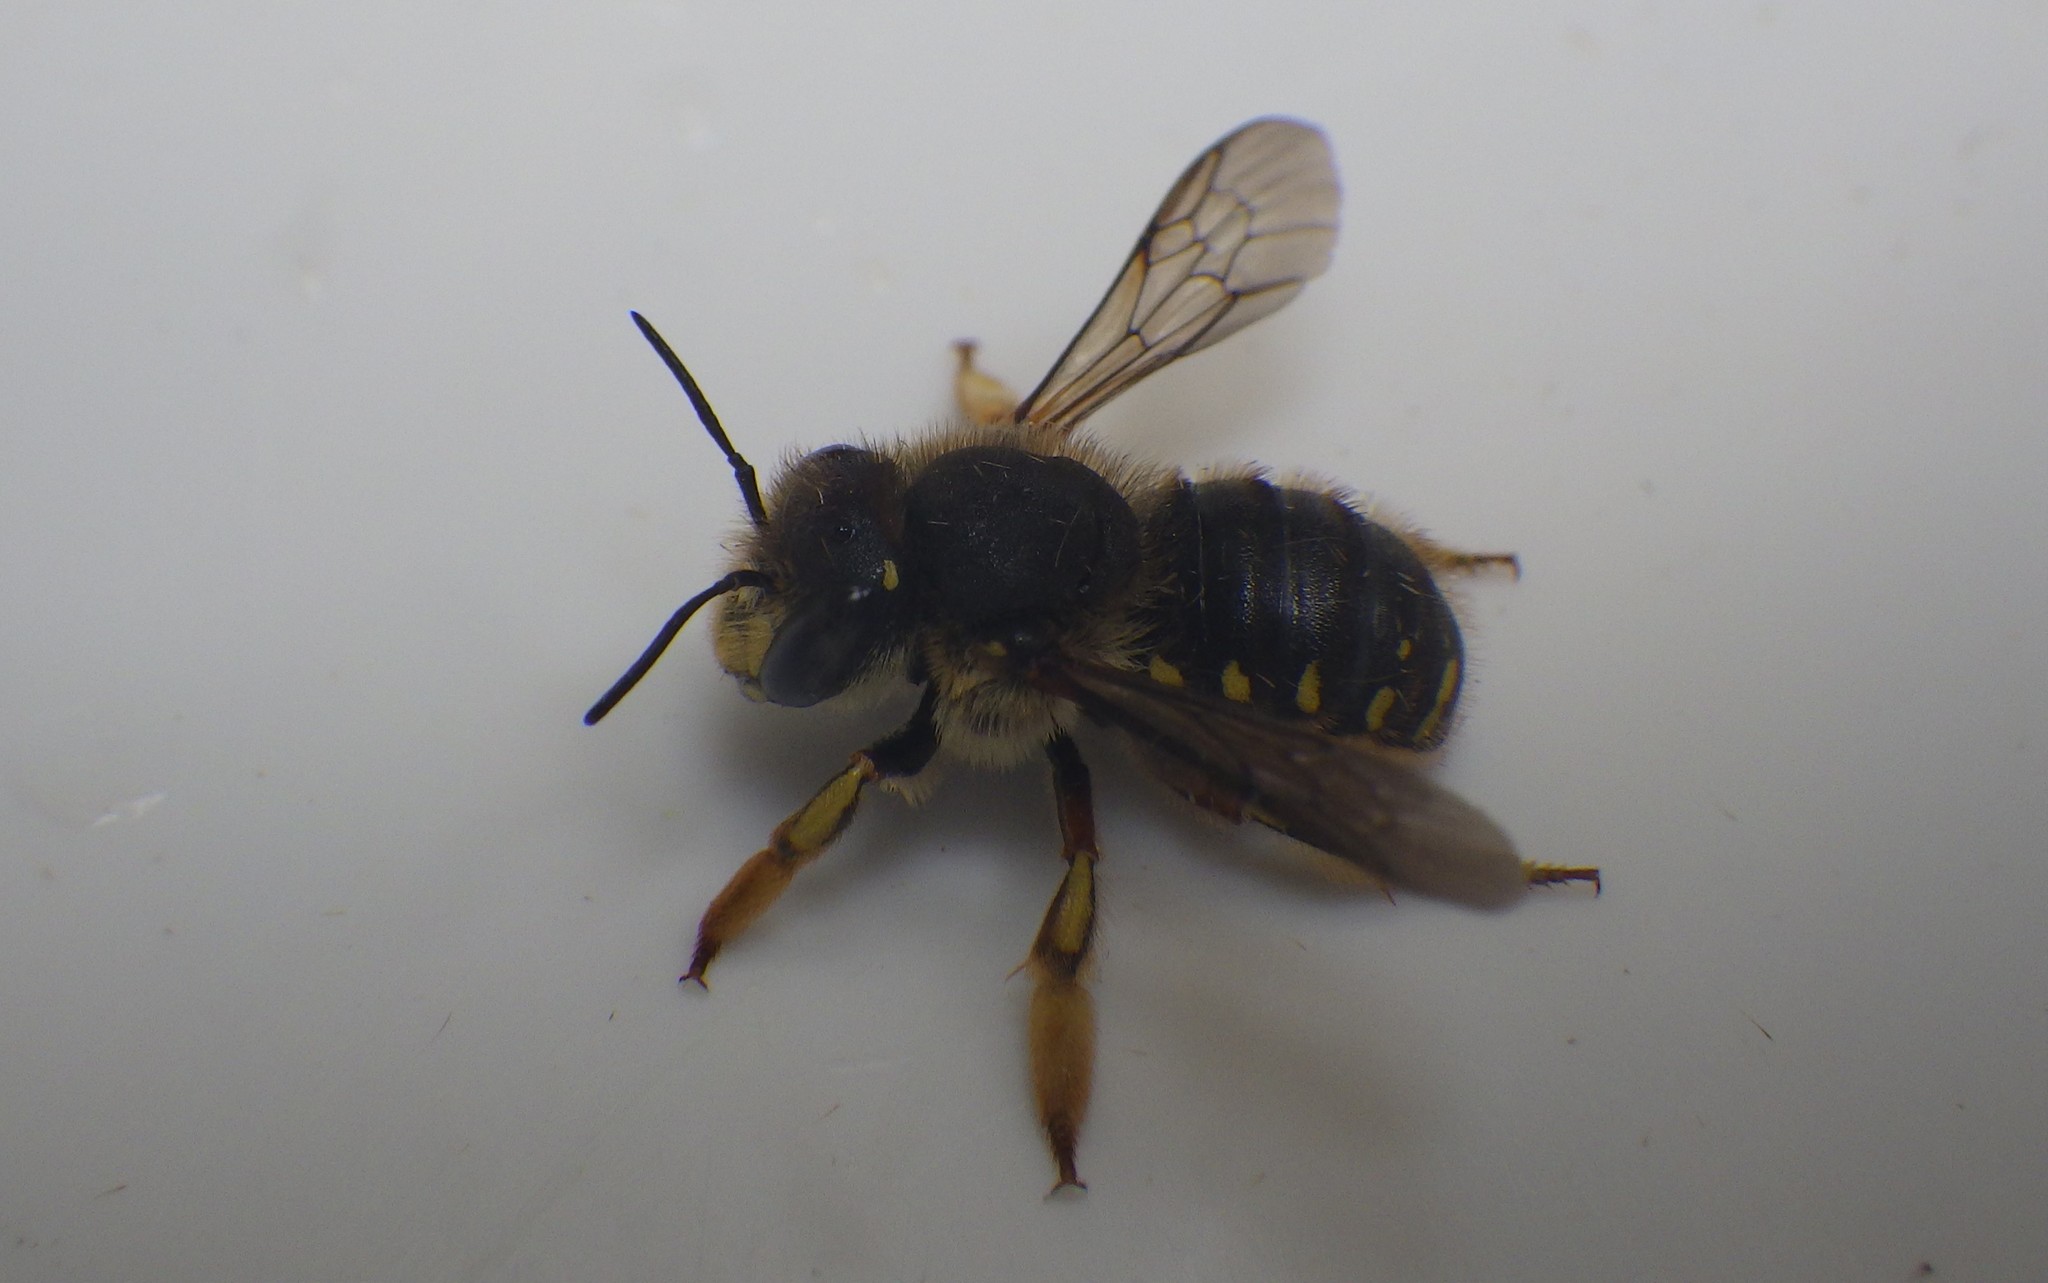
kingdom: Animalia
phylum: Arthropoda
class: Insecta
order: Hymenoptera
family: Megachilidae
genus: Anthidium
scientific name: Anthidium manicatum
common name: Wool carder bee
